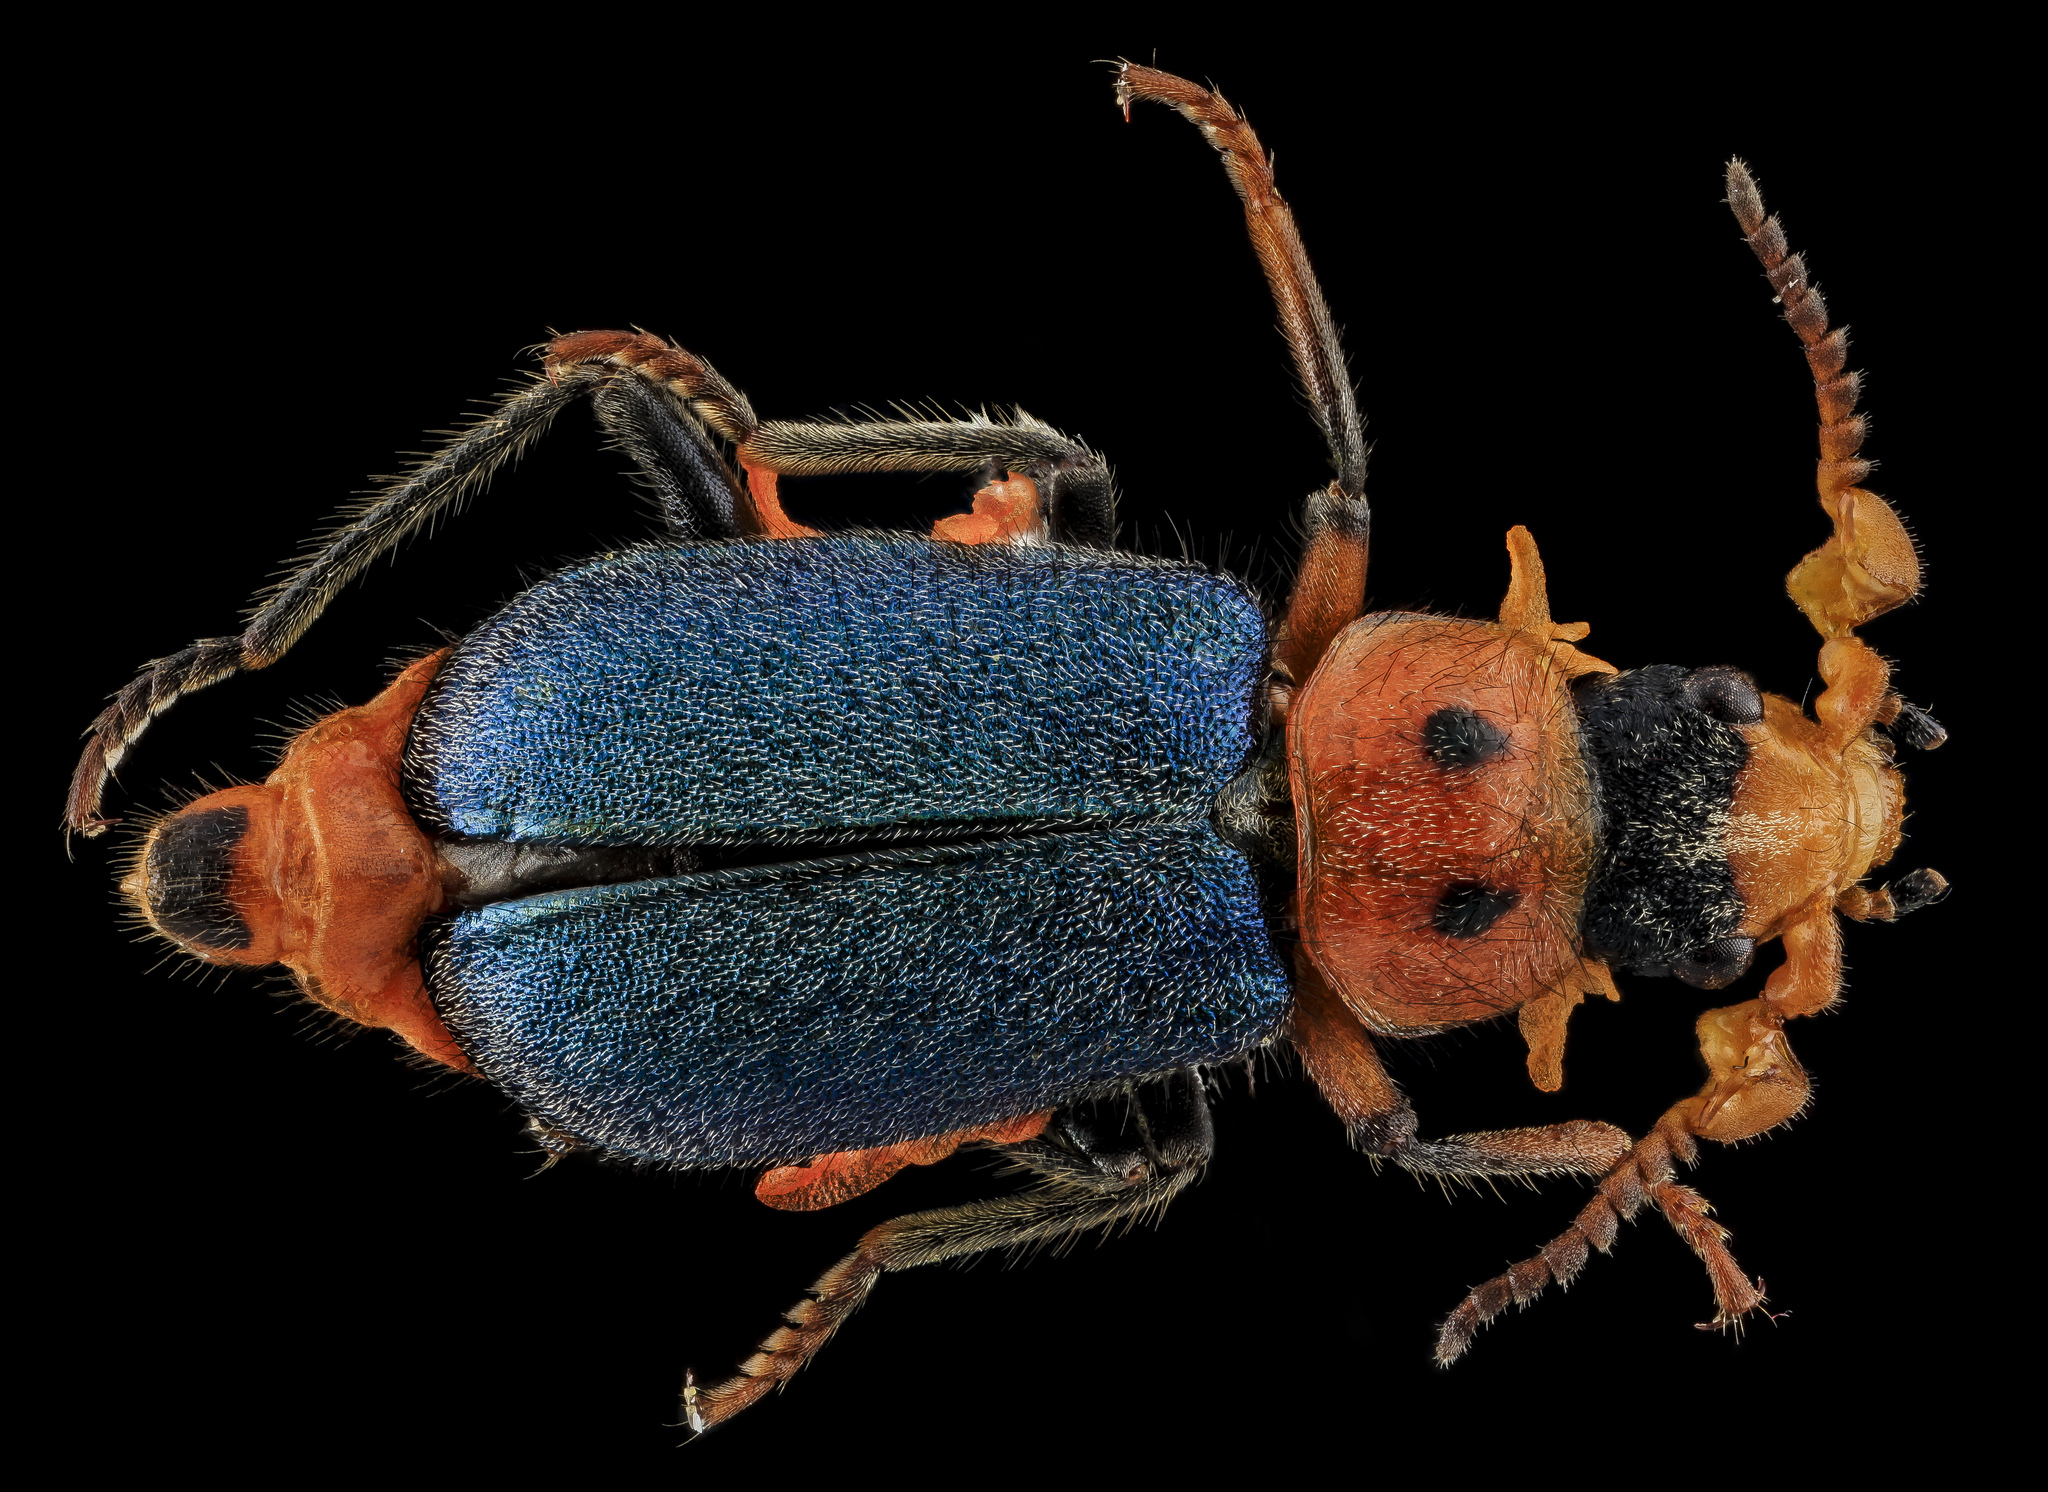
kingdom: Animalia
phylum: Arthropoda
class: Insecta
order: Coleoptera
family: Melyridae
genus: Collops
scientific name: Collops bipunctatus
